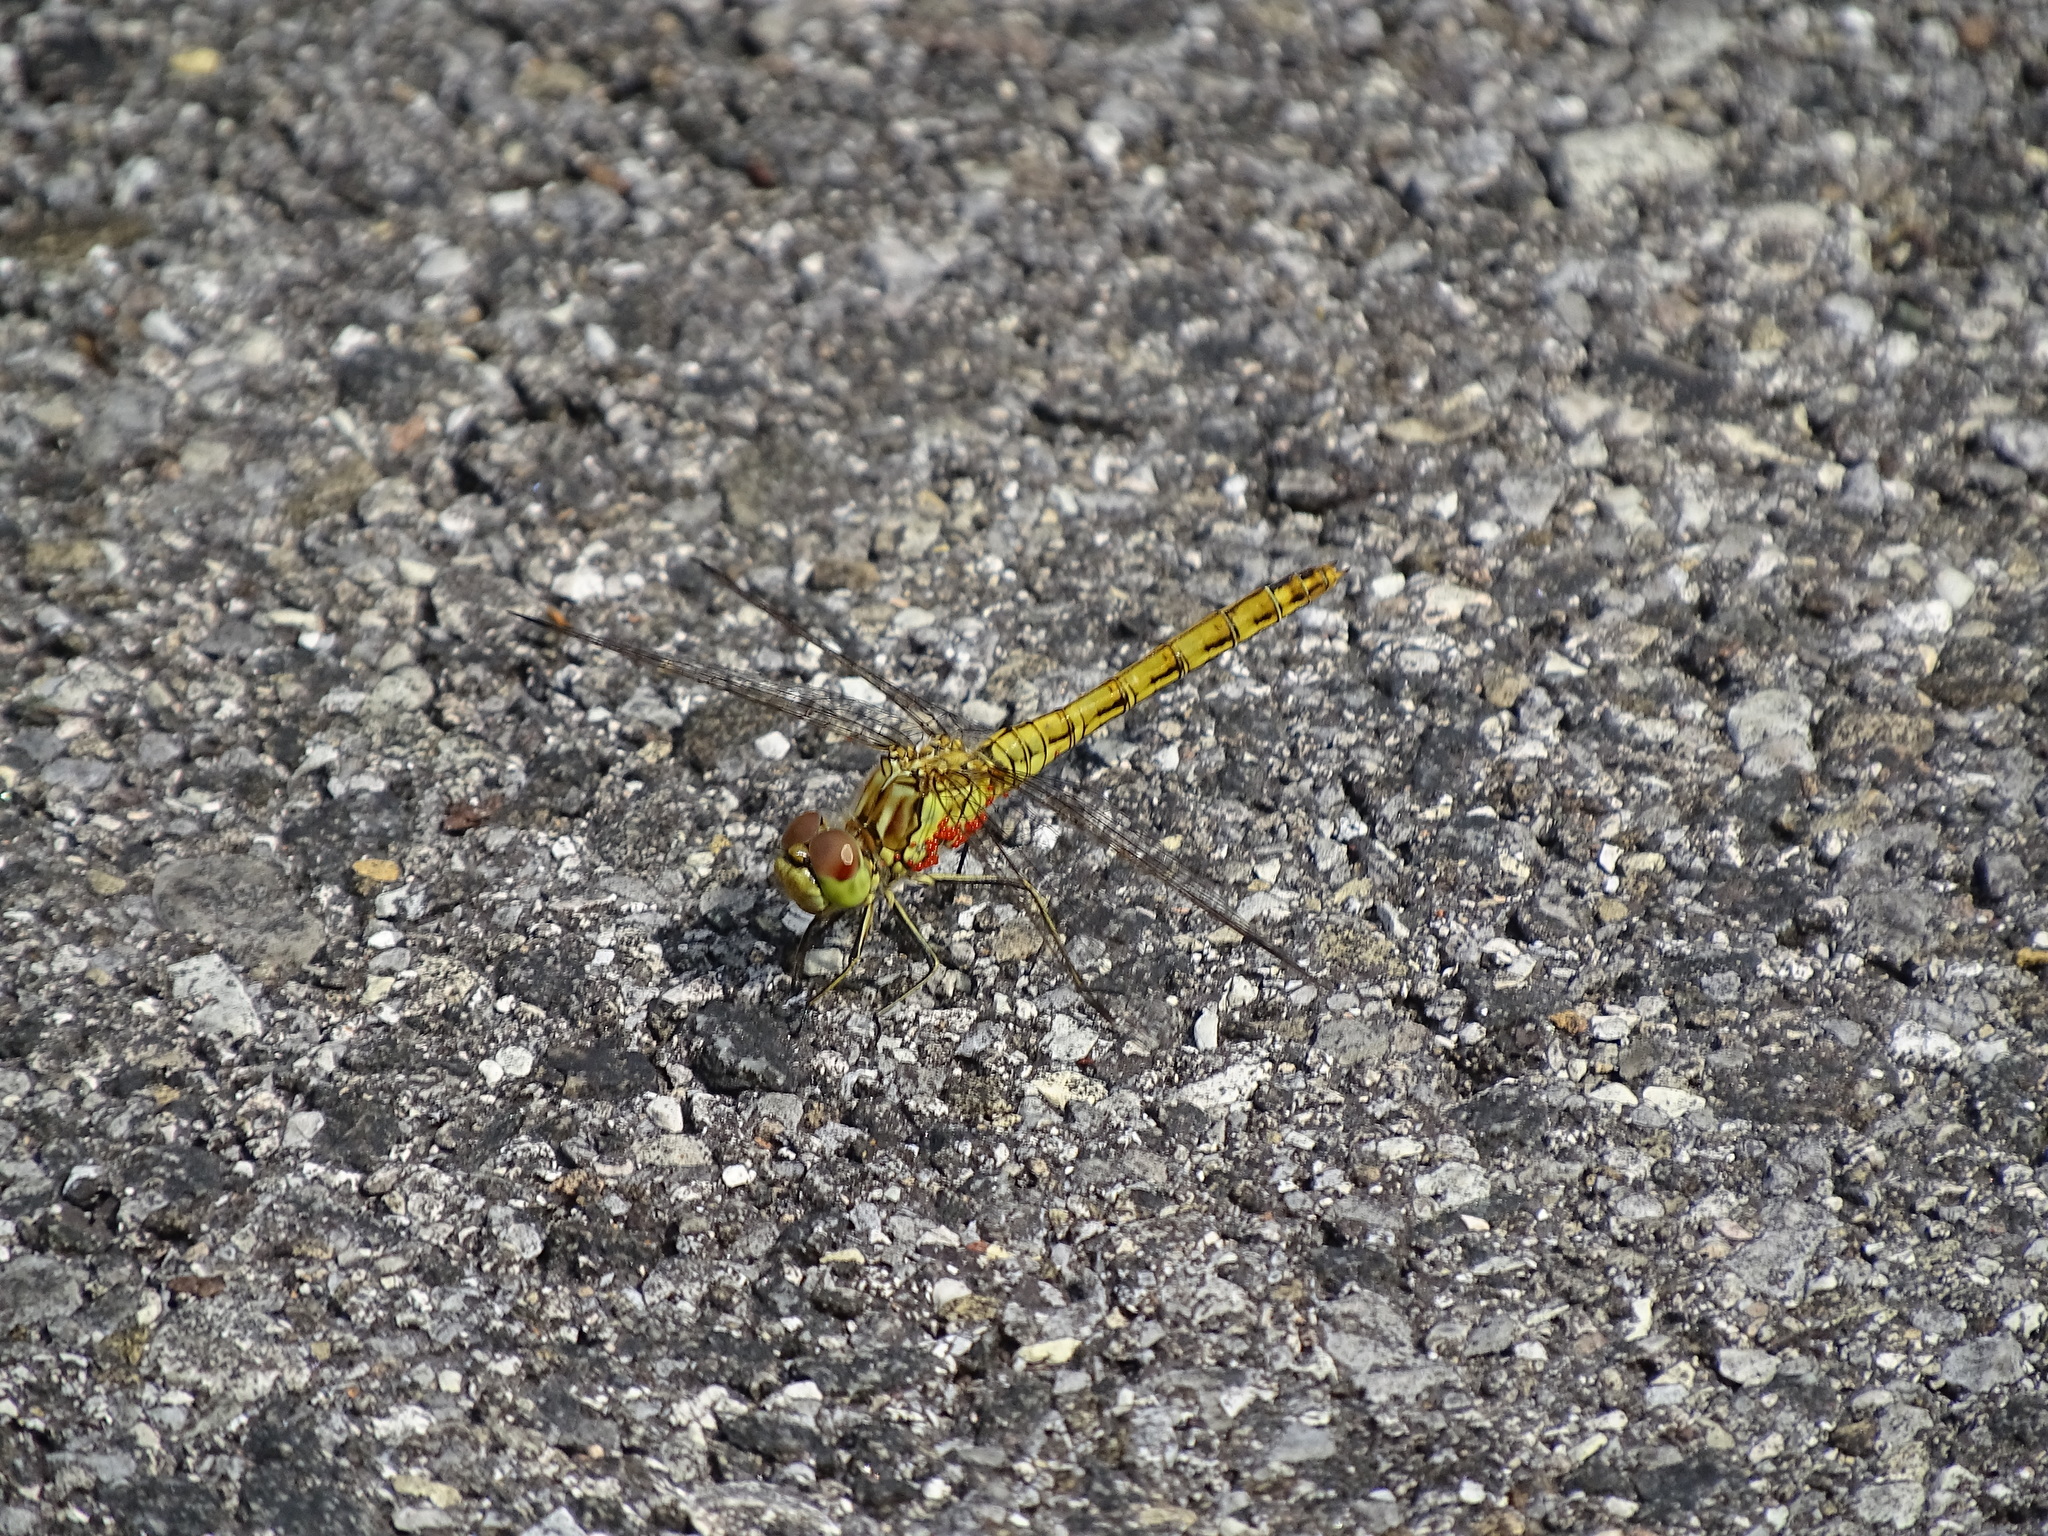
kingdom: Animalia
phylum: Arthropoda
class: Insecta
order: Odonata
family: Libellulidae
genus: Sympetrum
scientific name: Sympetrum vulgatum
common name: Vagrant darter
